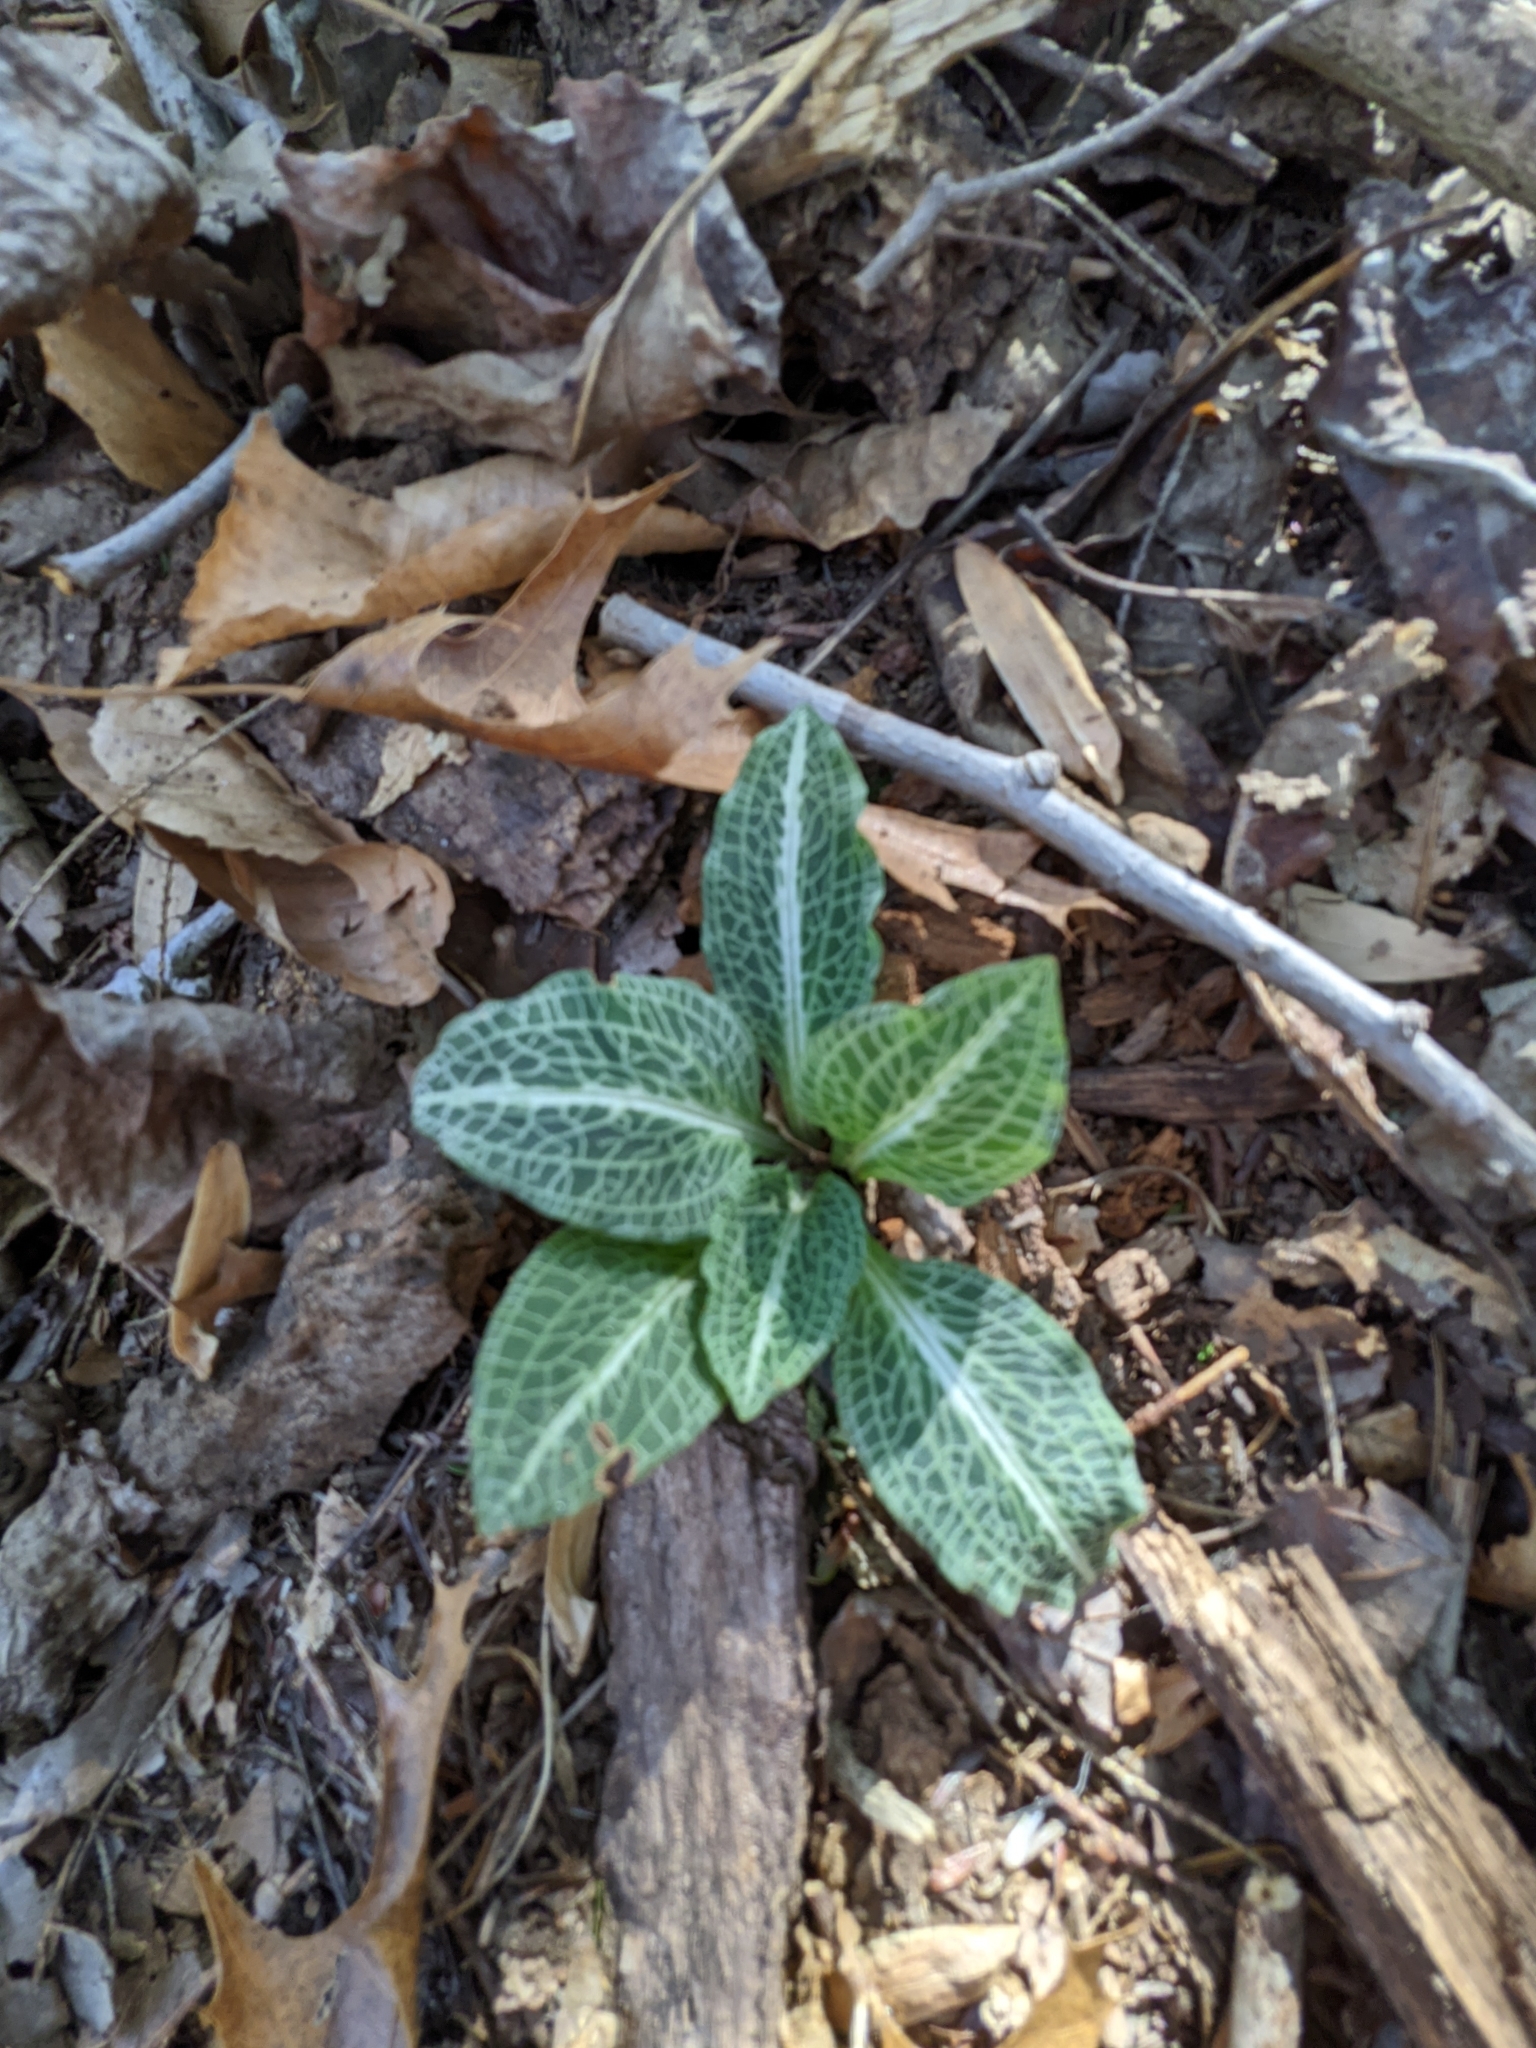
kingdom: Plantae
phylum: Tracheophyta
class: Liliopsida
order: Asparagales
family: Orchidaceae
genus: Goodyera
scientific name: Goodyera pubescens
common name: Downy rattlesnake-plantain
